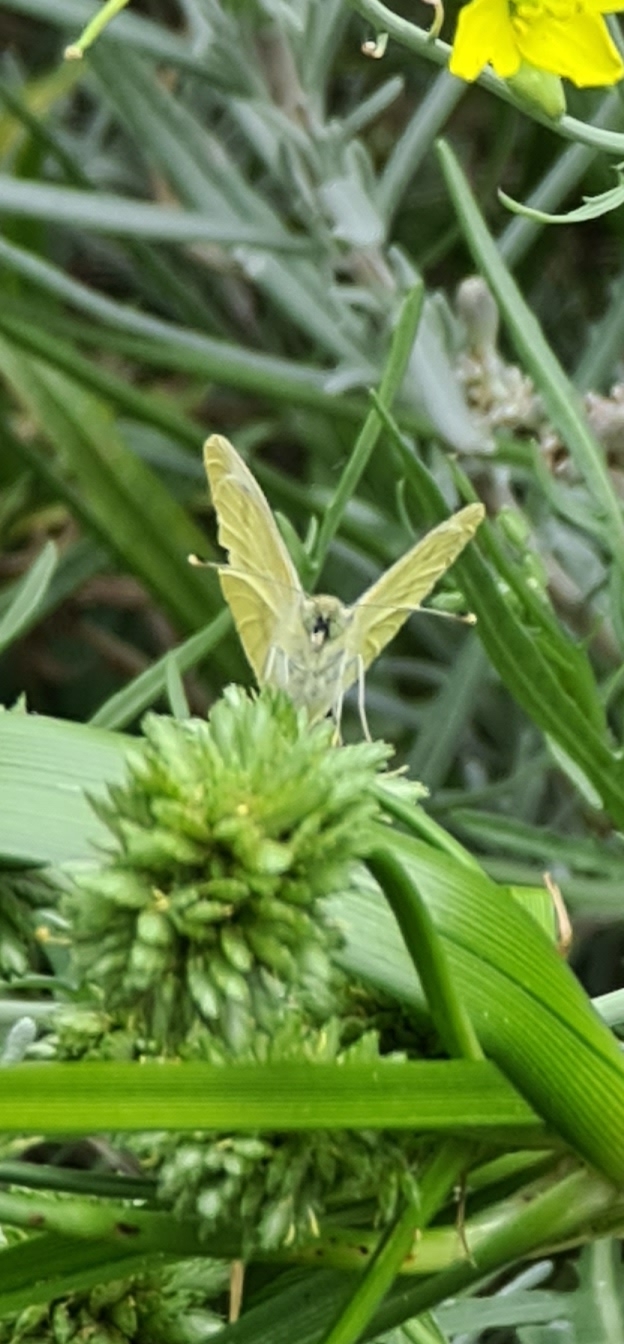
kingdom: Animalia
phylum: Arthropoda
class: Insecta
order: Lepidoptera
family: Pieridae
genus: Pieris
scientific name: Pieris rapae
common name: Small white
